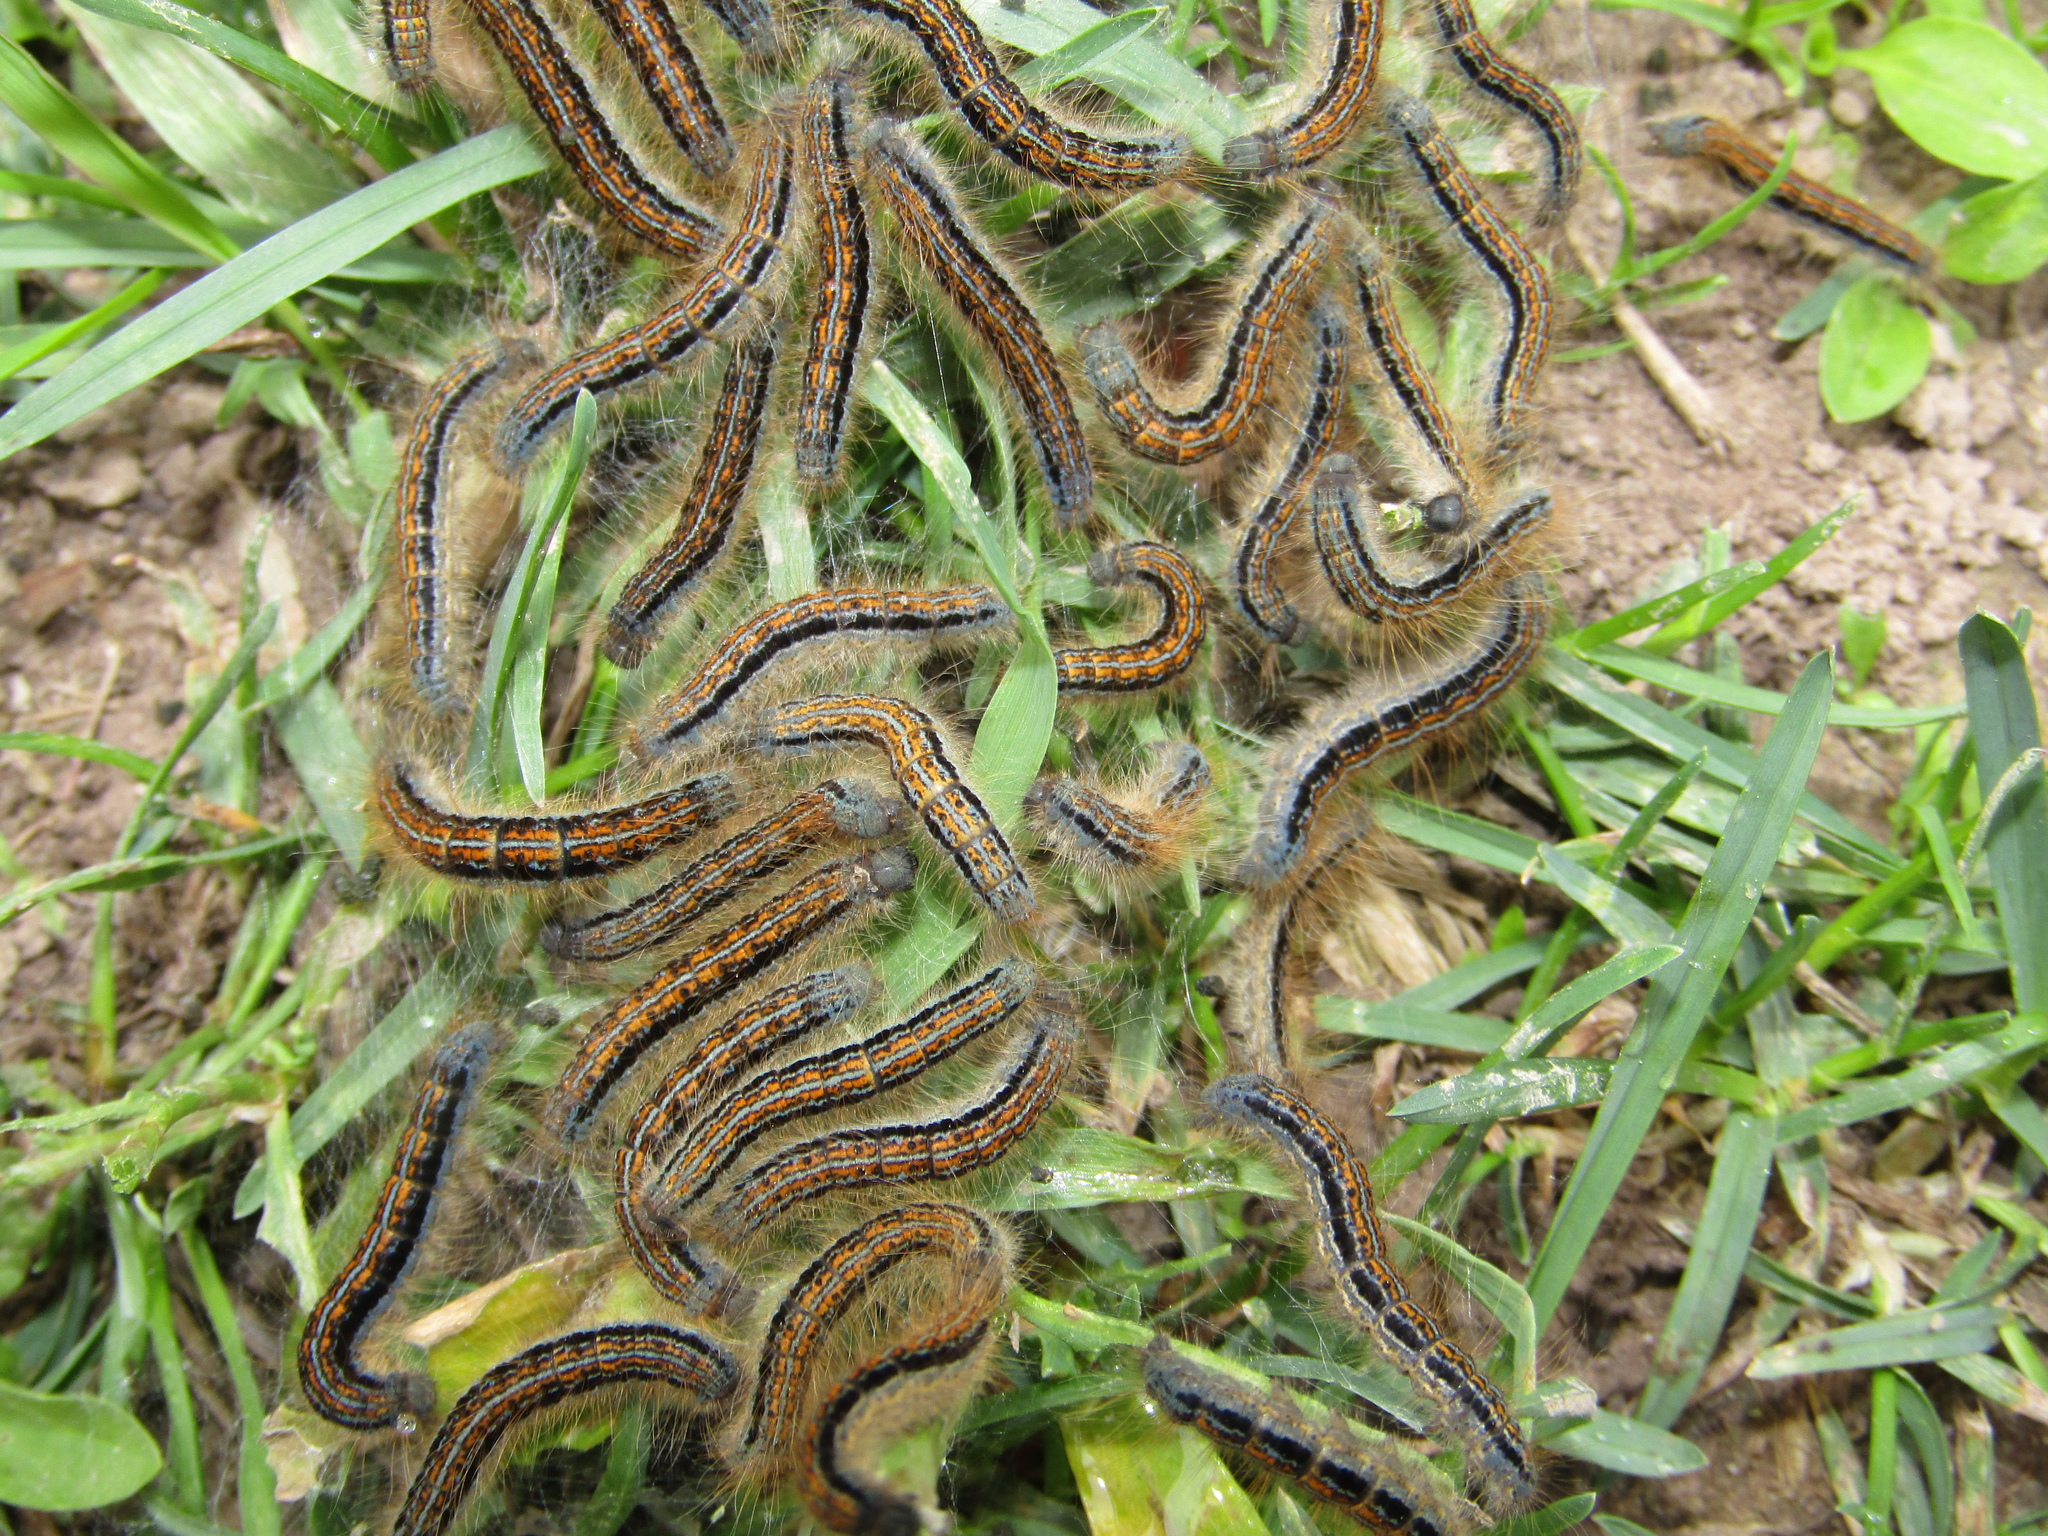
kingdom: Animalia
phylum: Arthropoda
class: Insecta
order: Lepidoptera
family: Lasiocampidae
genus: Malacosoma
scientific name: Malacosoma castrense
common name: Ground lackey
